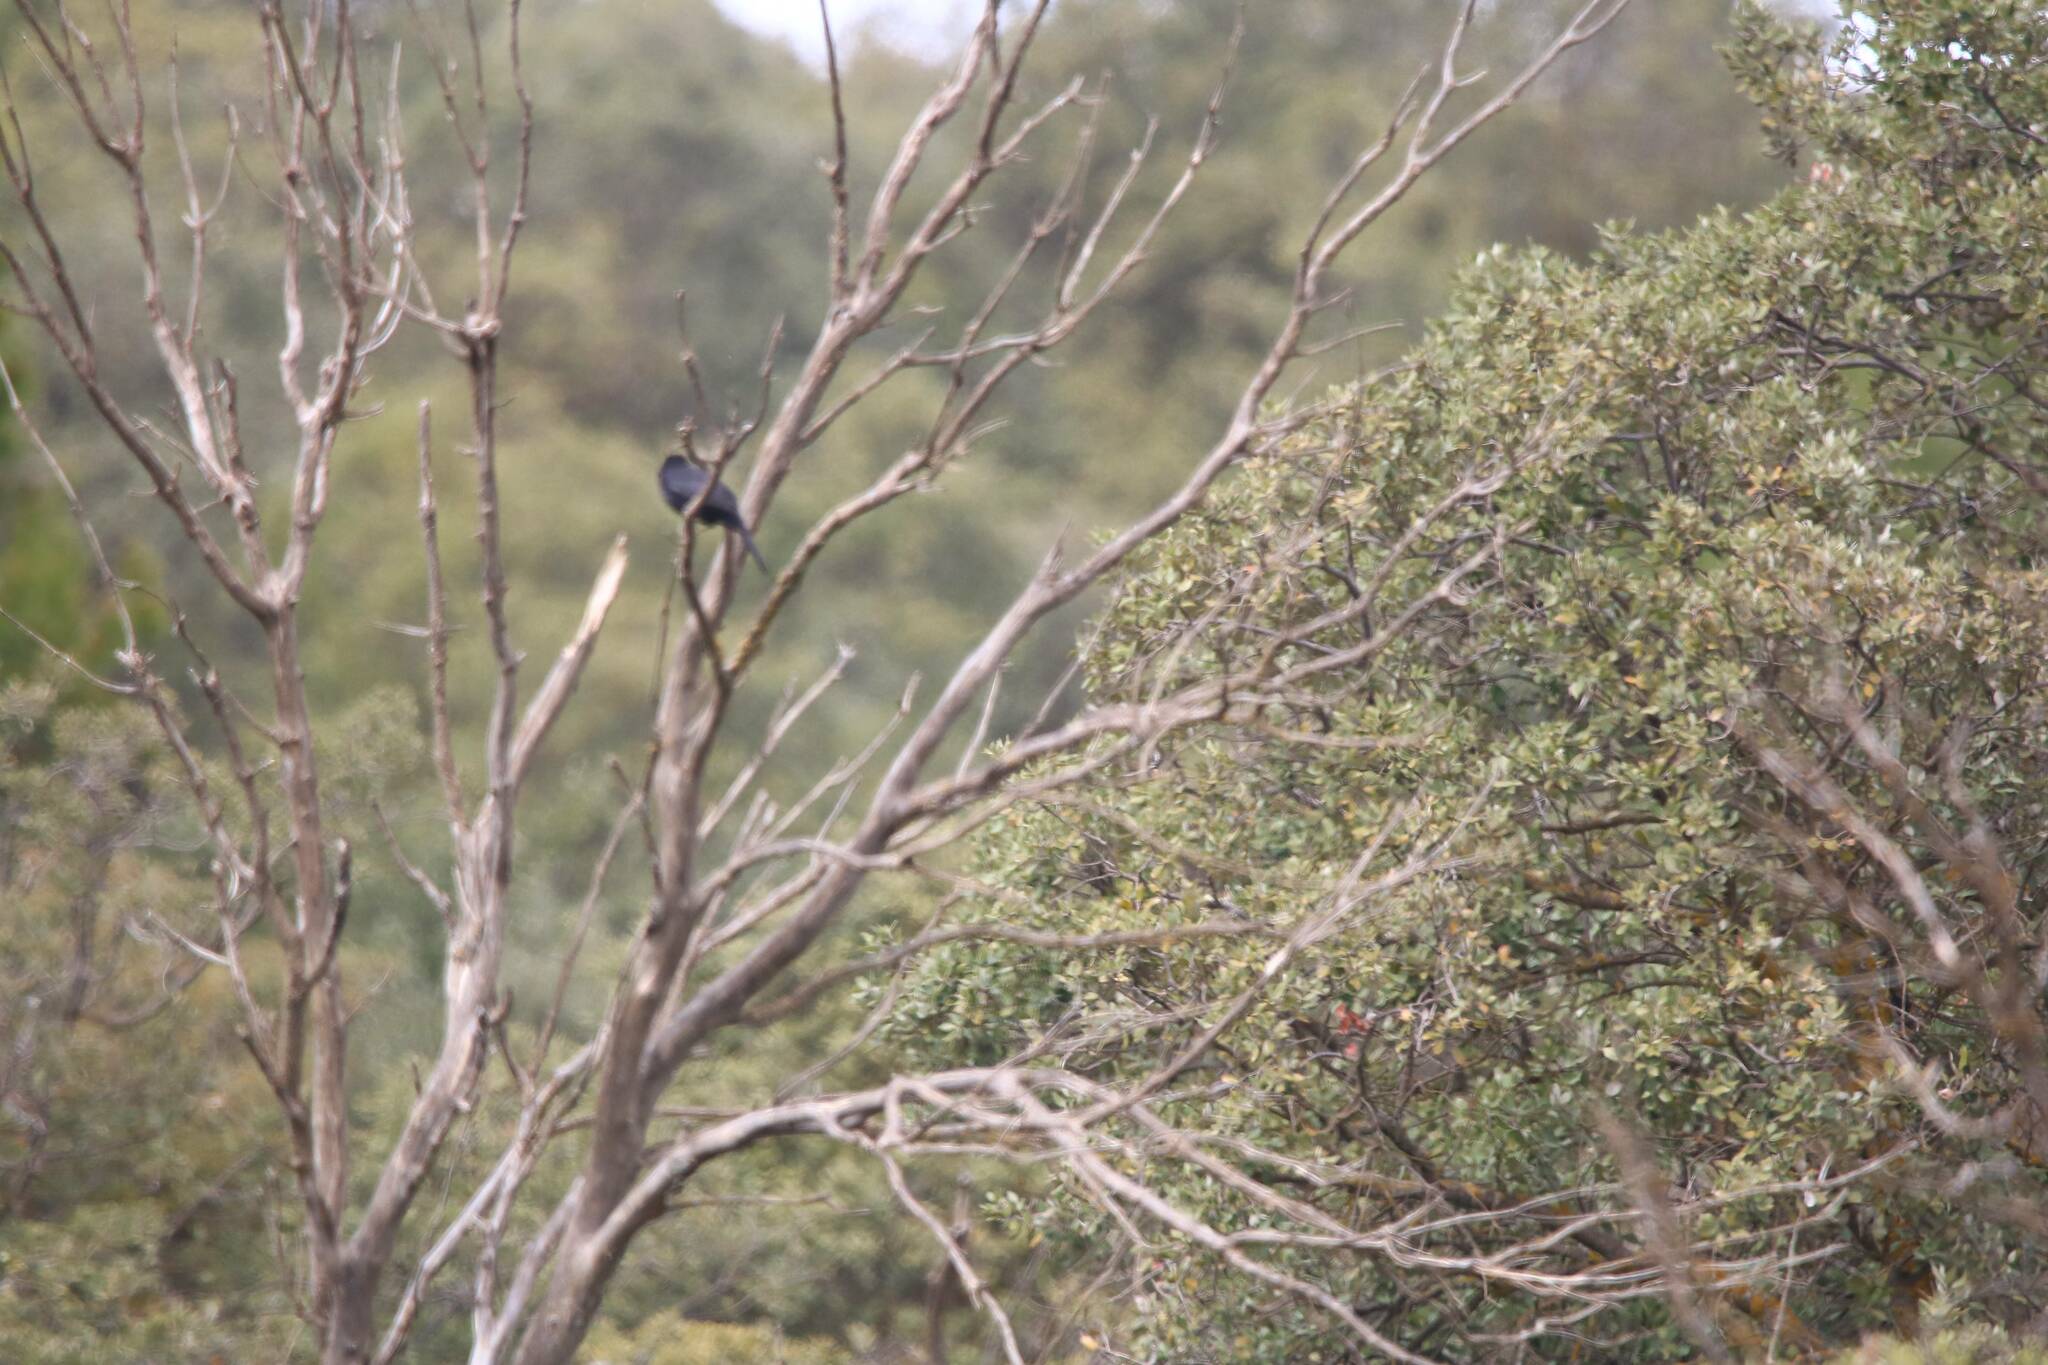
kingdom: Animalia
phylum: Chordata
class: Aves
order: Passeriformes
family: Turdidae
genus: Turdus
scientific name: Turdus merula
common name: Common blackbird
